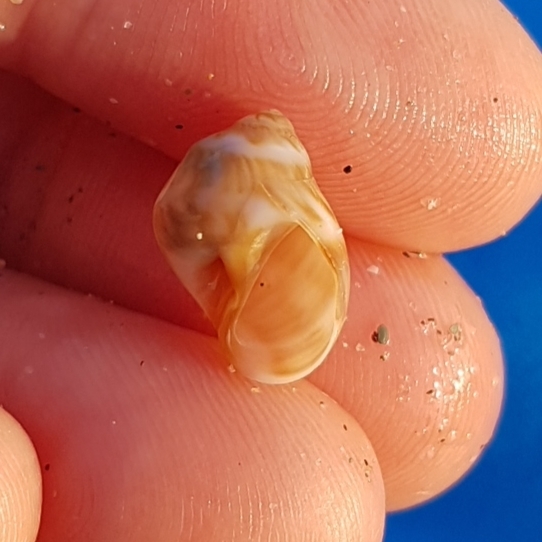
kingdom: Animalia
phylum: Mollusca
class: Gastropoda
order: Littorinimorpha
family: Naticidae
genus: Euspira
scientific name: Euspira macilenta
